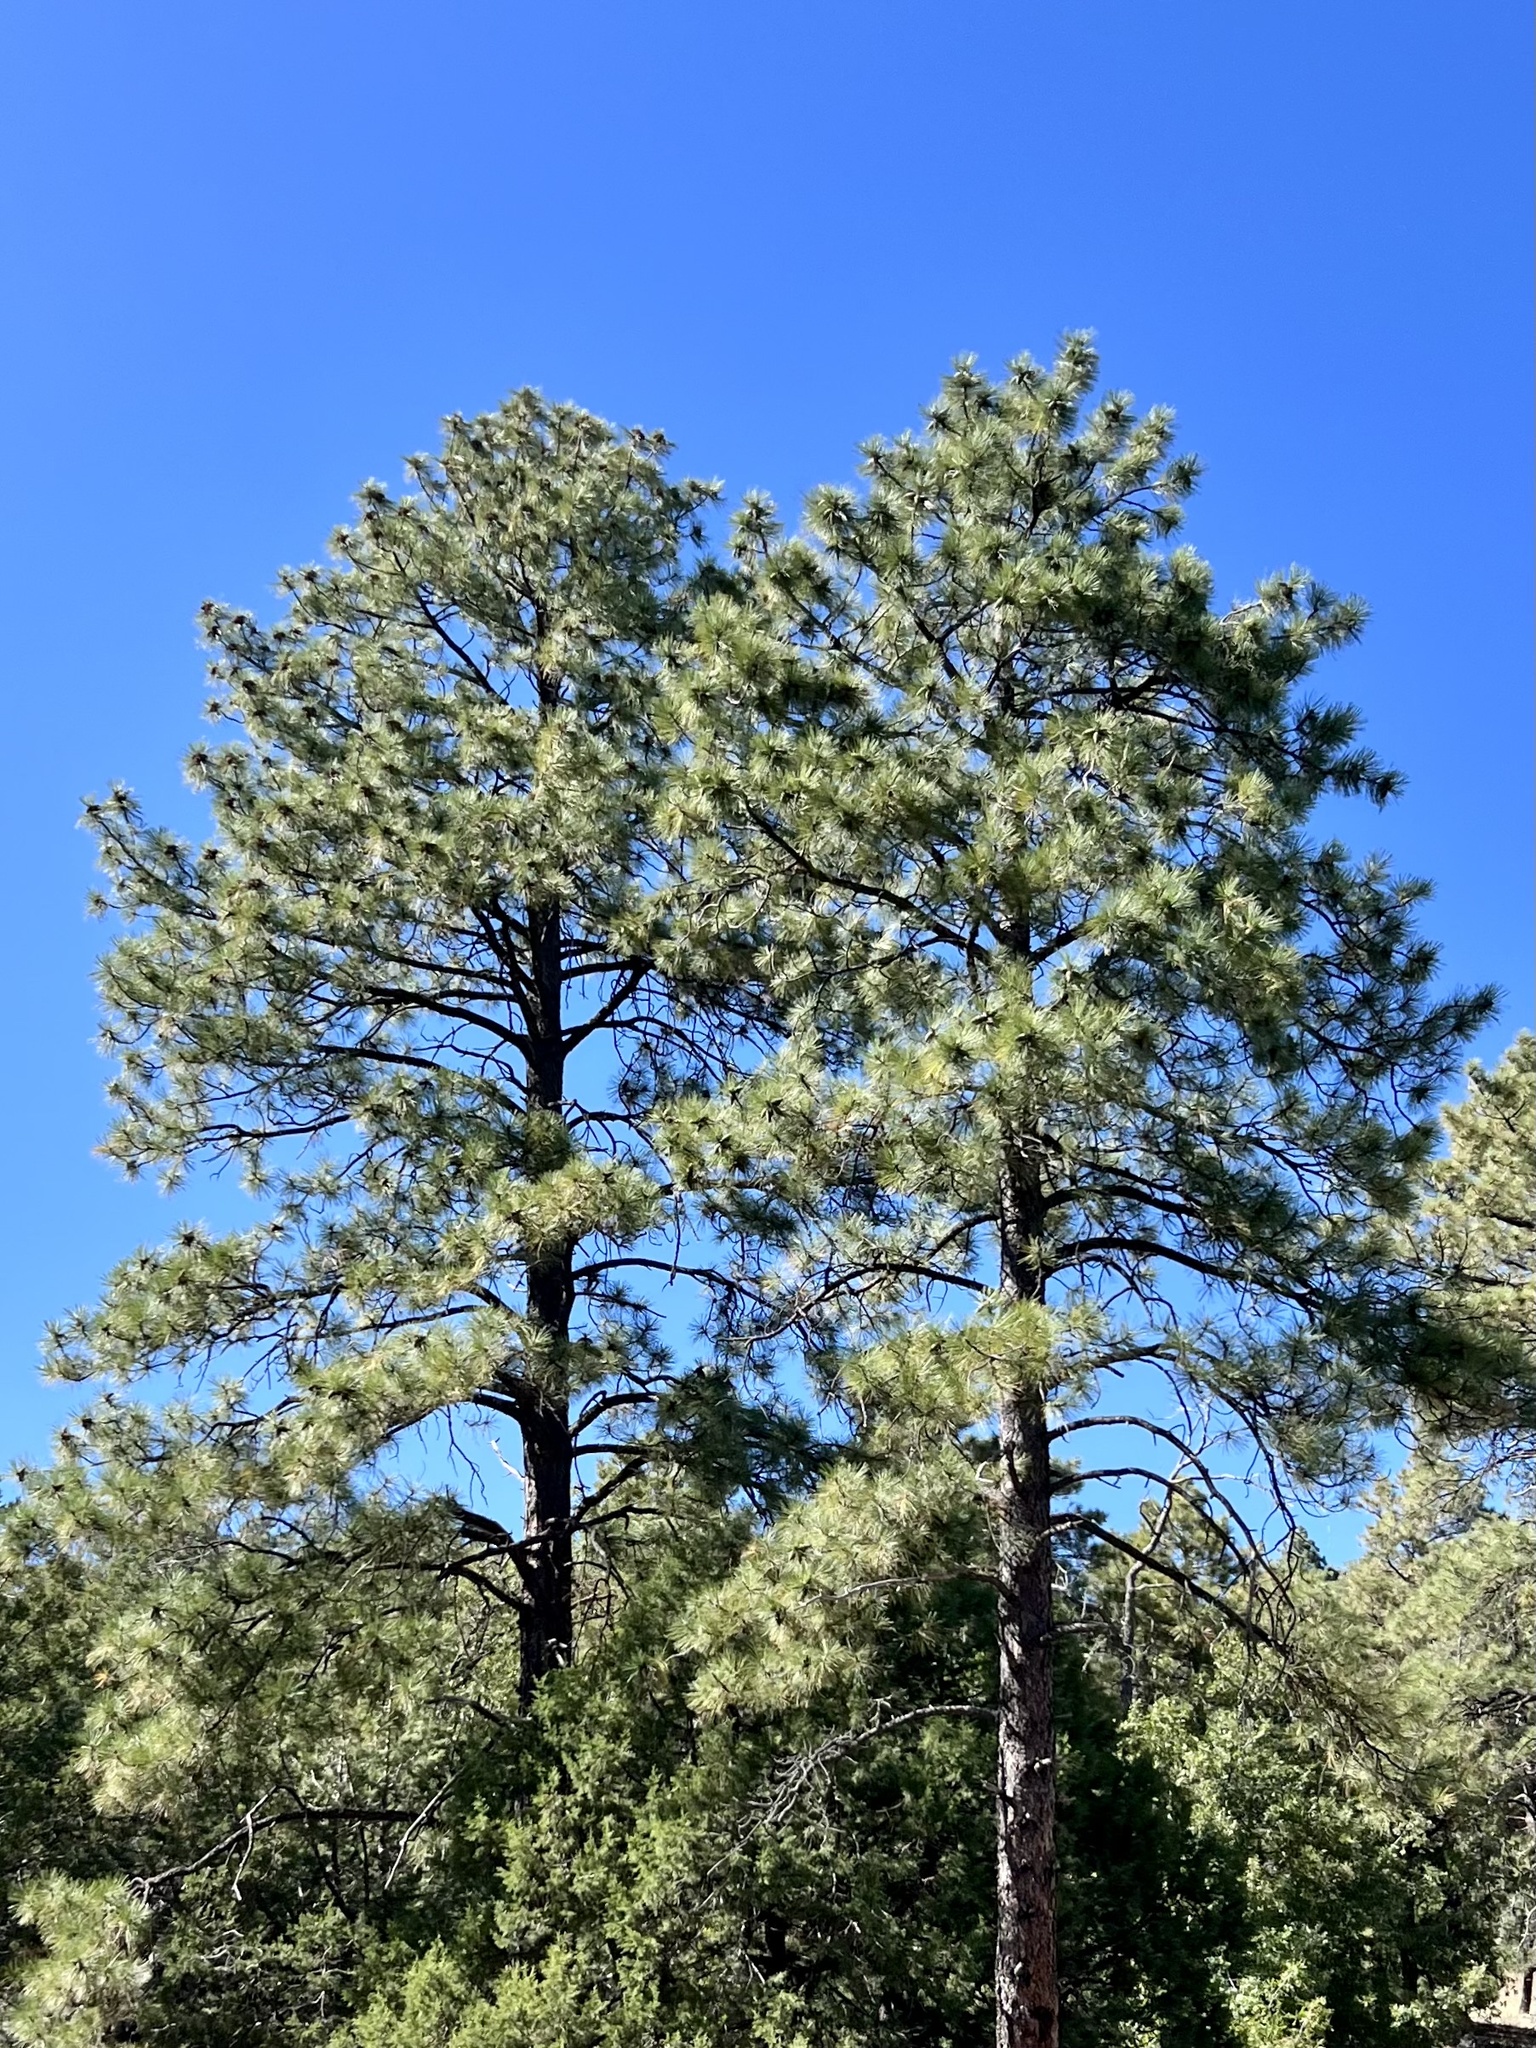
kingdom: Plantae
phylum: Tracheophyta
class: Pinopsida
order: Pinales
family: Pinaceae
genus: Pinus
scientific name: Pinus ponderosa
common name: Western yellow-pine
